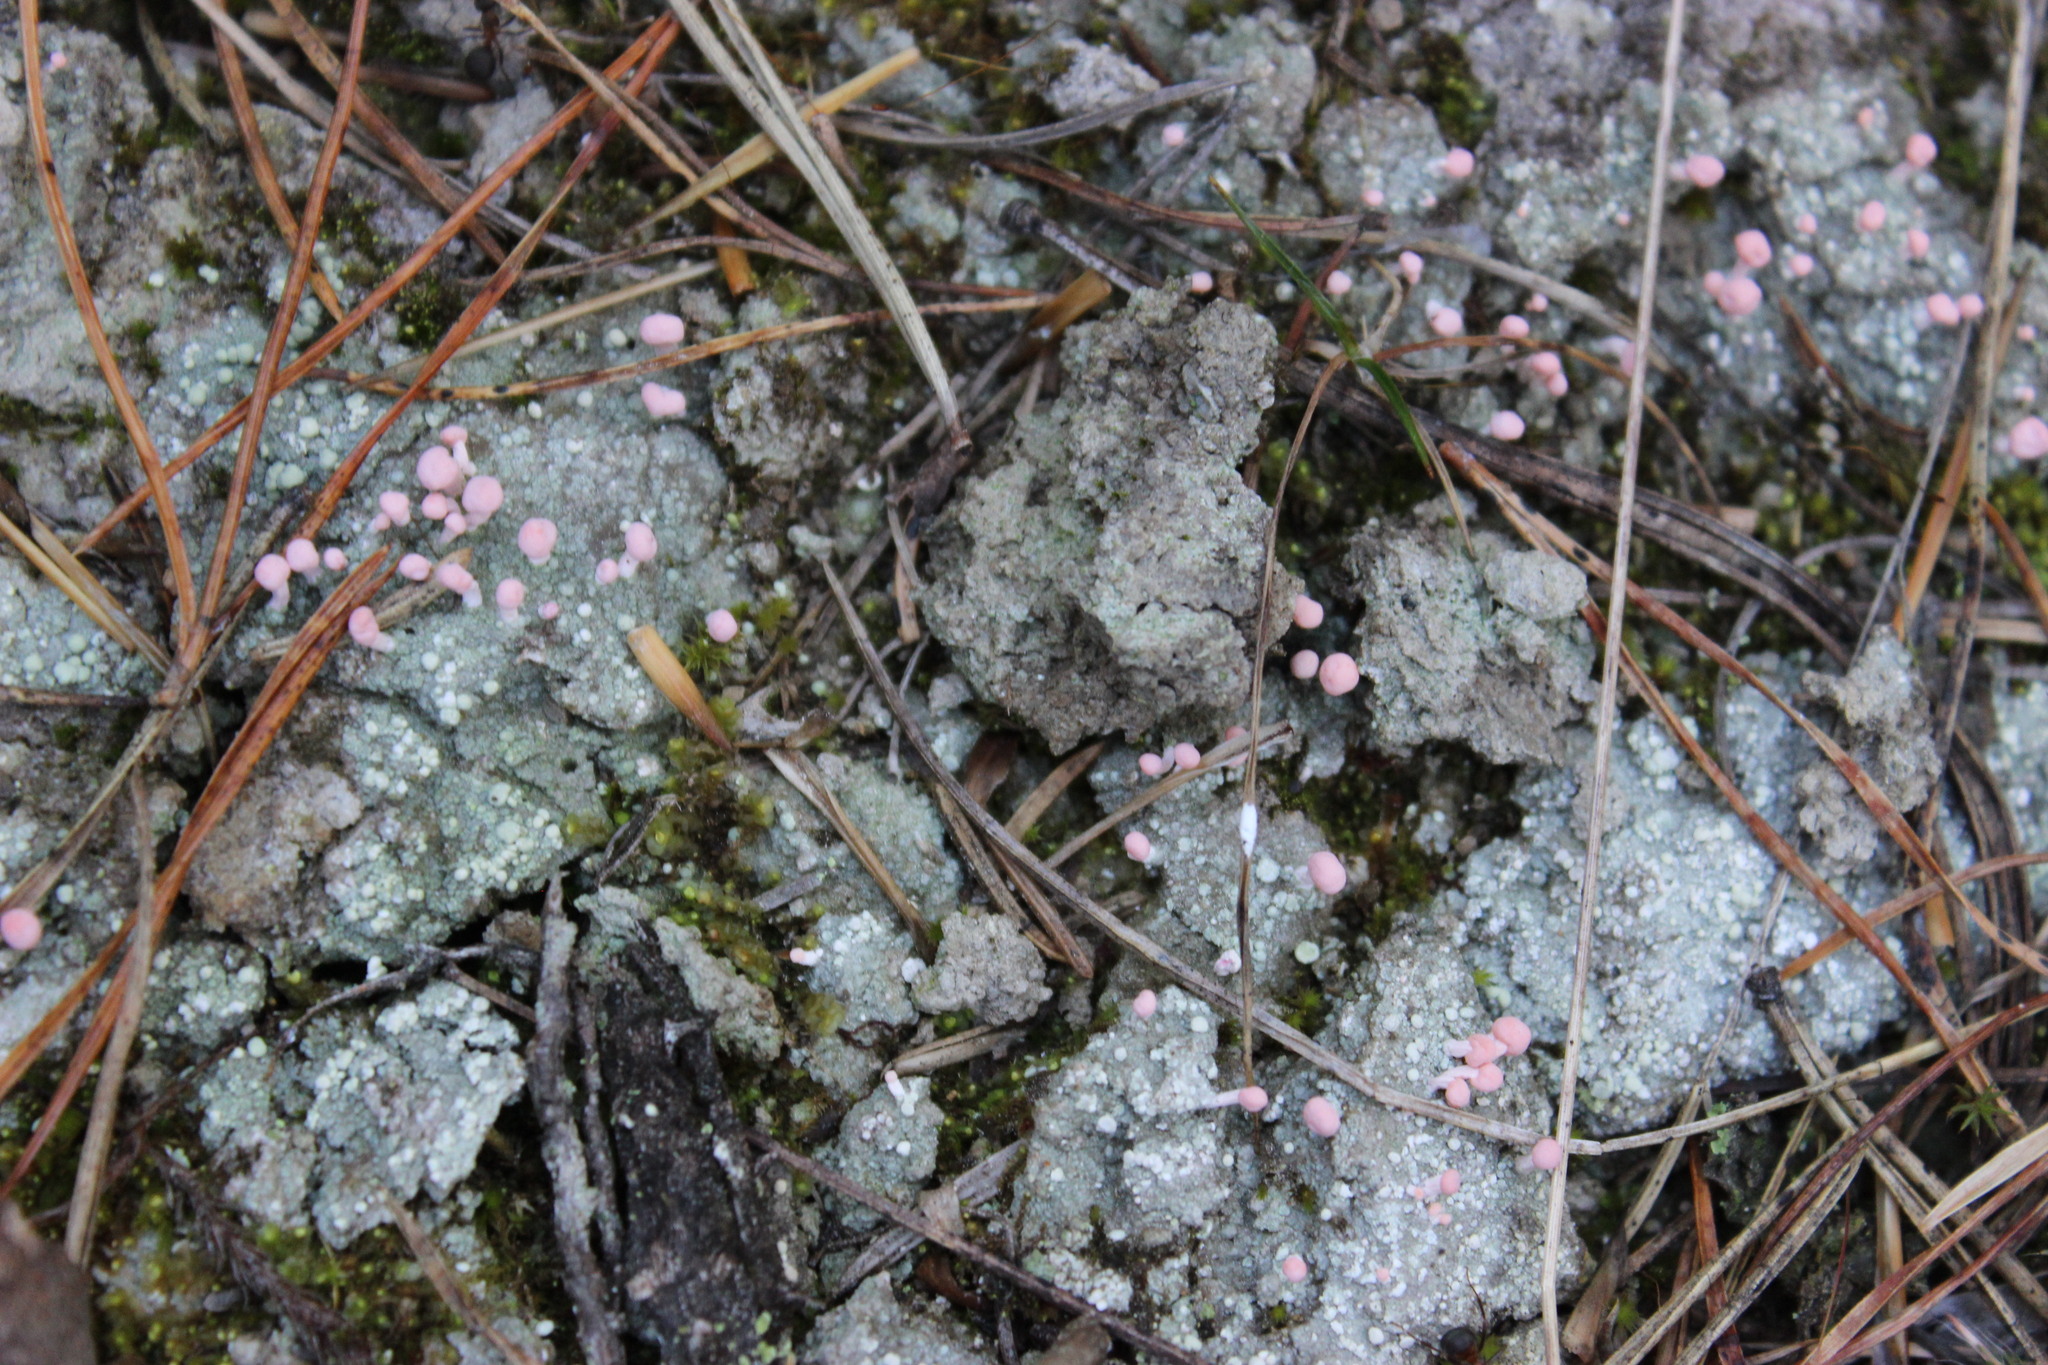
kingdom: Fungi
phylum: Ascomycota
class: Lecanoromycetes
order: Pertusariales
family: Icmadophilaceae
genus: Dibaeis
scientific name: Dibaeis baeomyces
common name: Pink earth lichen
